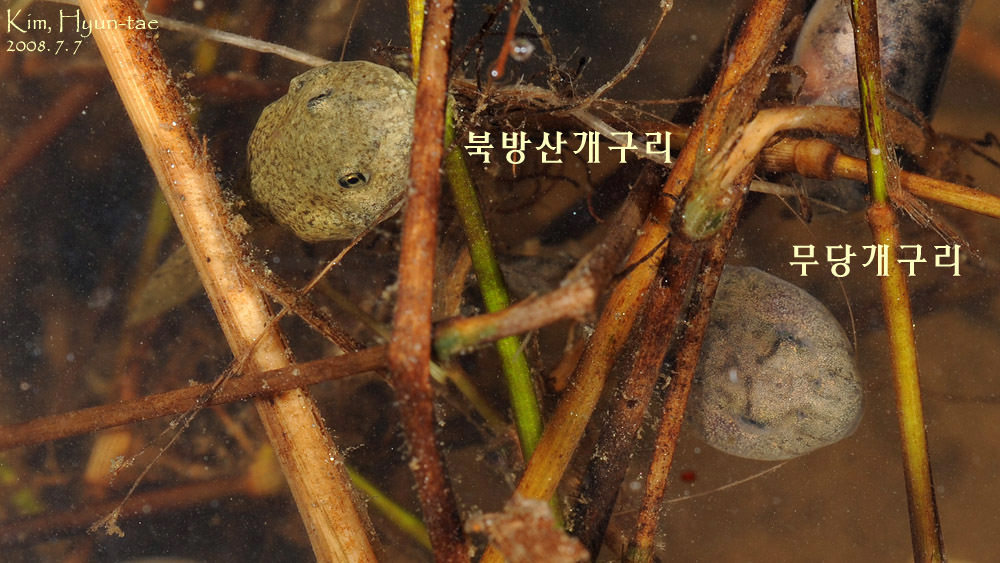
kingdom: Animalia
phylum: Chordata
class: Amphibia
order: Anura
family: Ranidae
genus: Rana
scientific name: Rana uenoi
